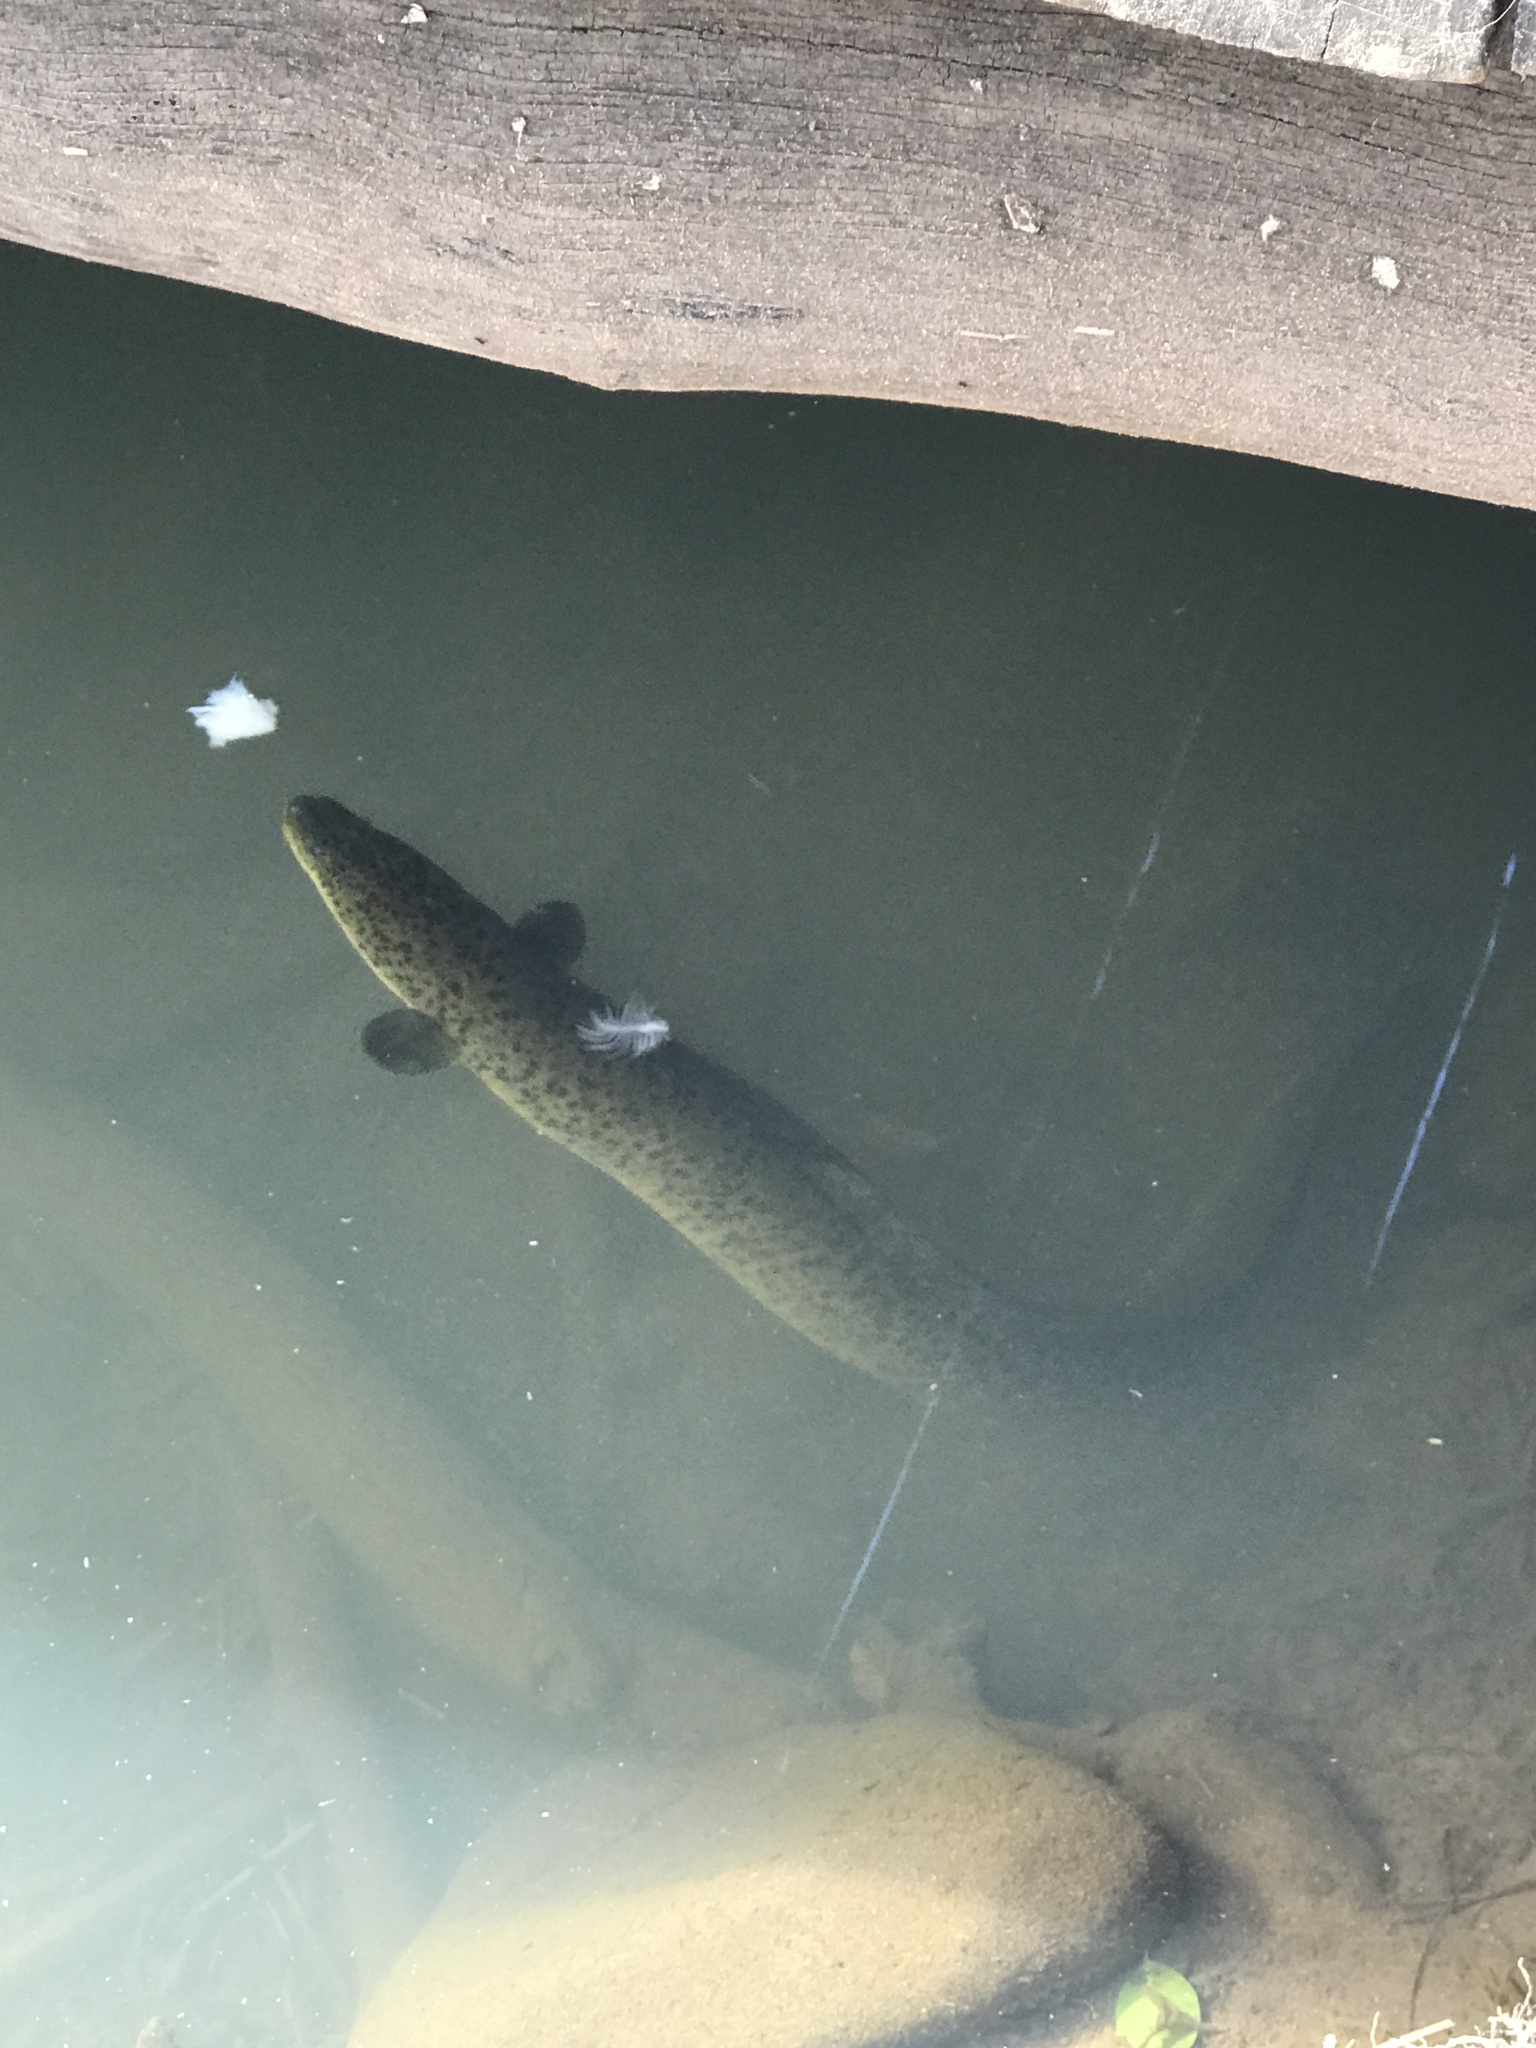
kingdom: Animalia
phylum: Chordata
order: Anguilliformes
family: Anguillidae
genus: Anguilla
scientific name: Anguilla reinhardtii
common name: Longfin eel
